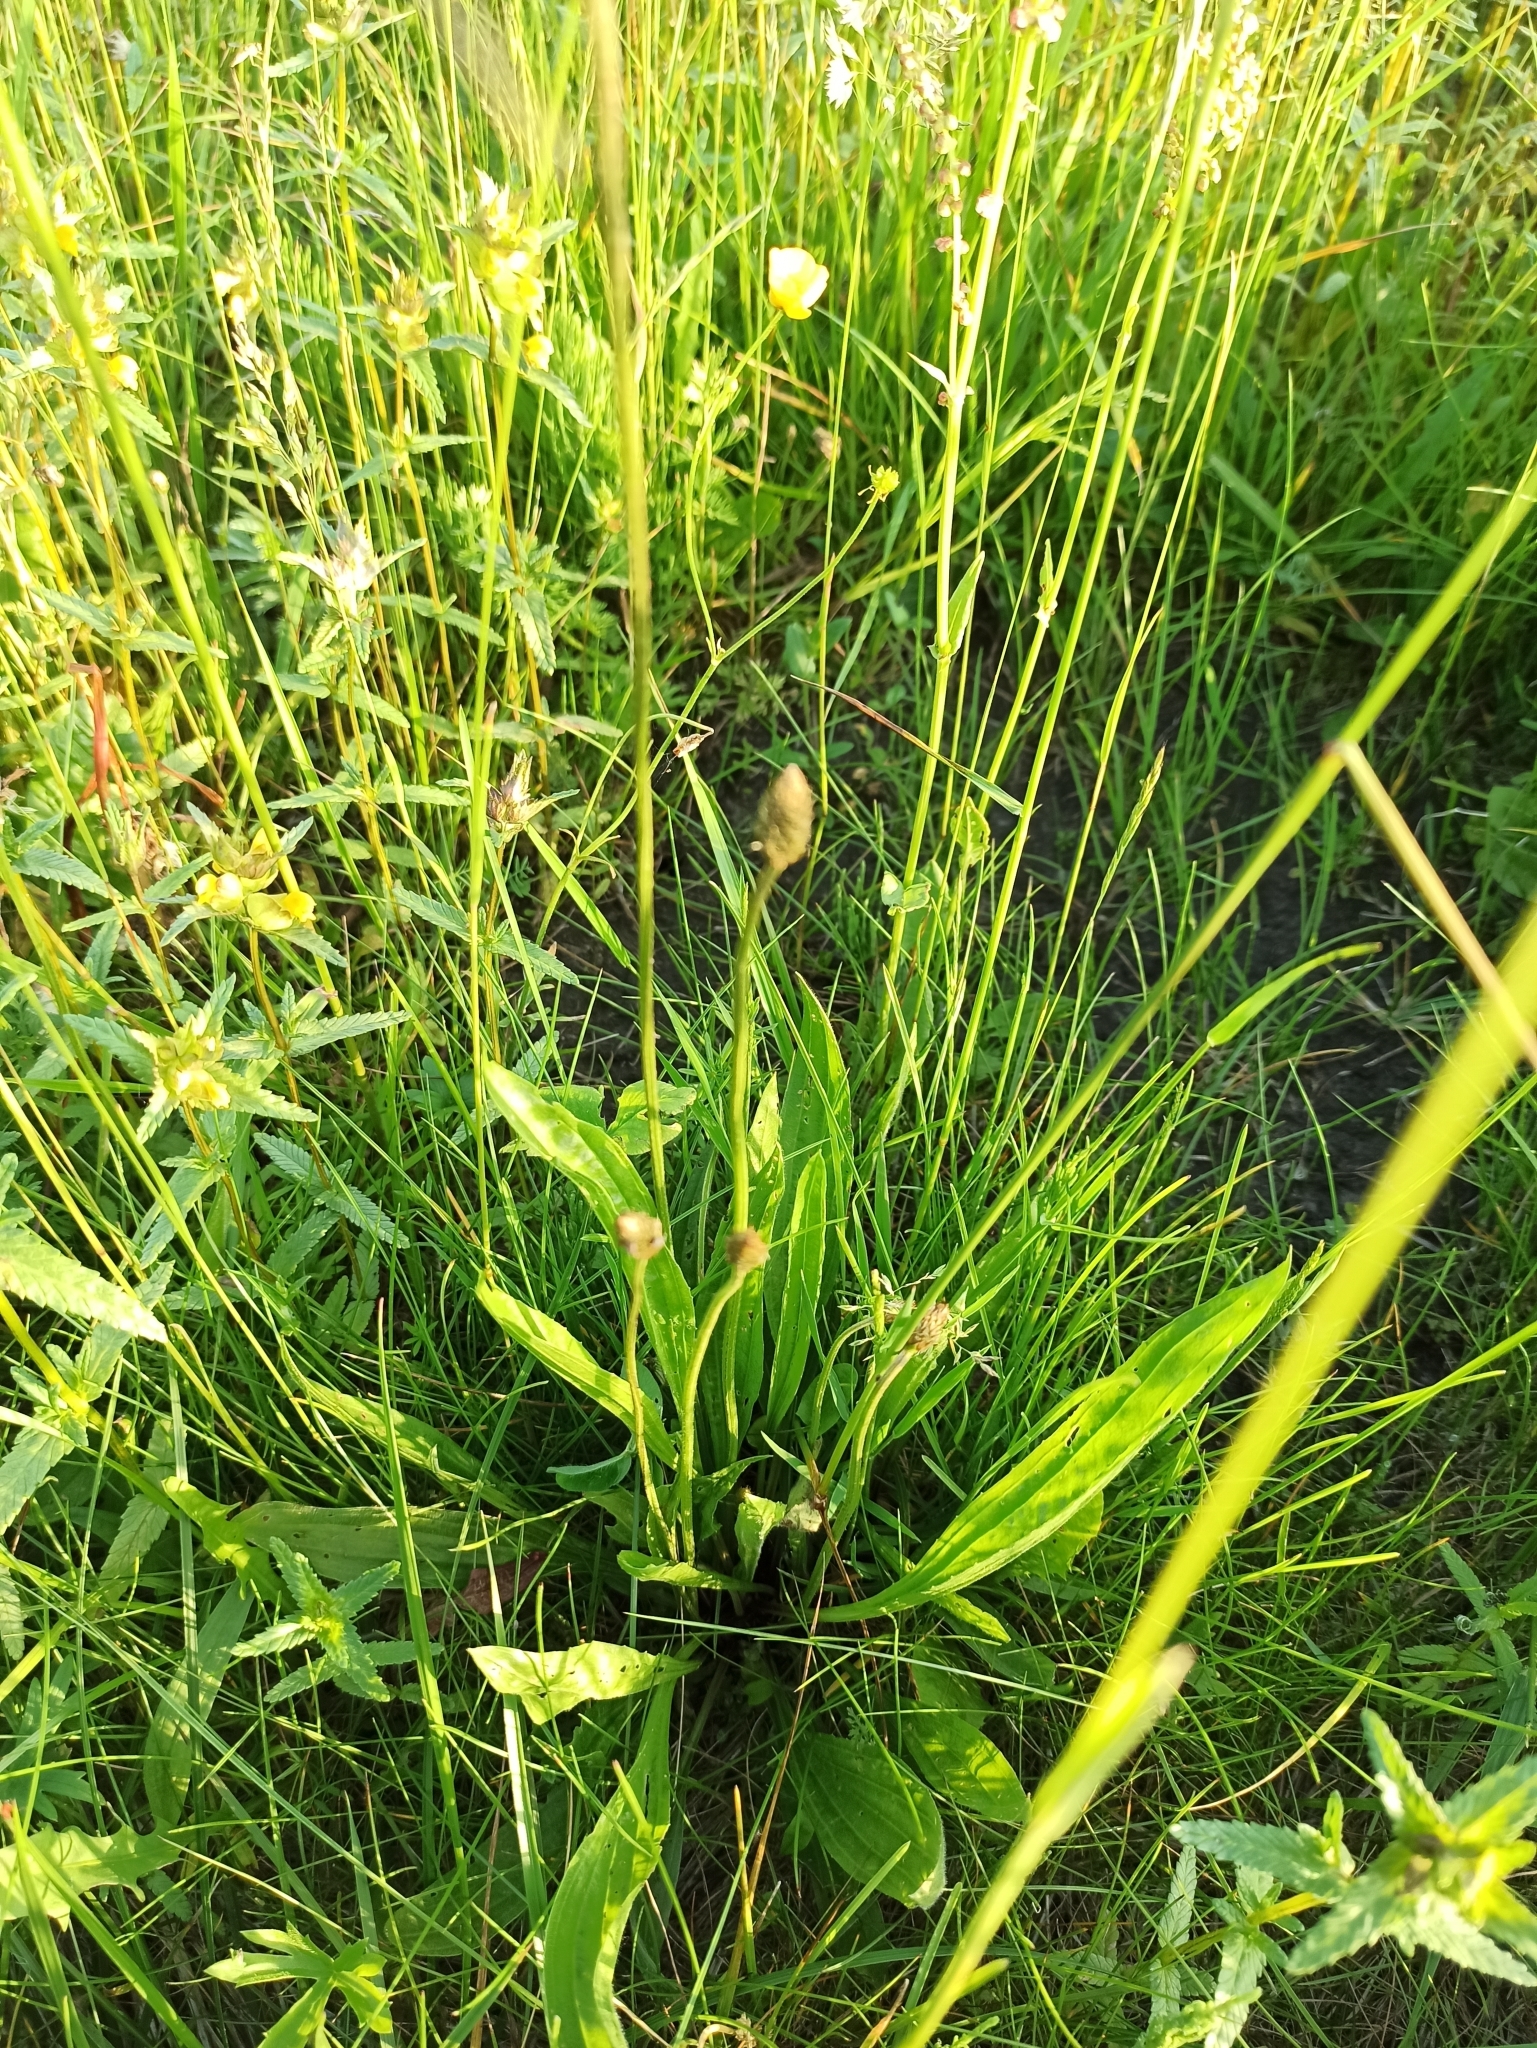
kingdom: Plantae
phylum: Tracheophyta
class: Magnoliopsida
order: Lamiales
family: Plantaginaceae
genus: Plantago
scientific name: Plantago lanceolata
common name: Ribwort plantain
